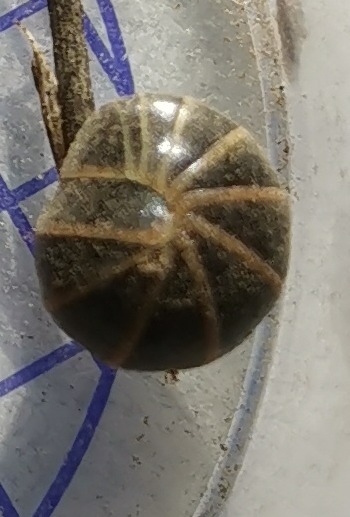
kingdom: Animalia
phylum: Arthropoda
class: Diplopoda
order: Glomerida
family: Glomeridae
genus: Glomeris
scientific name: Glomeris marginata
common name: Bordered pill millipede
